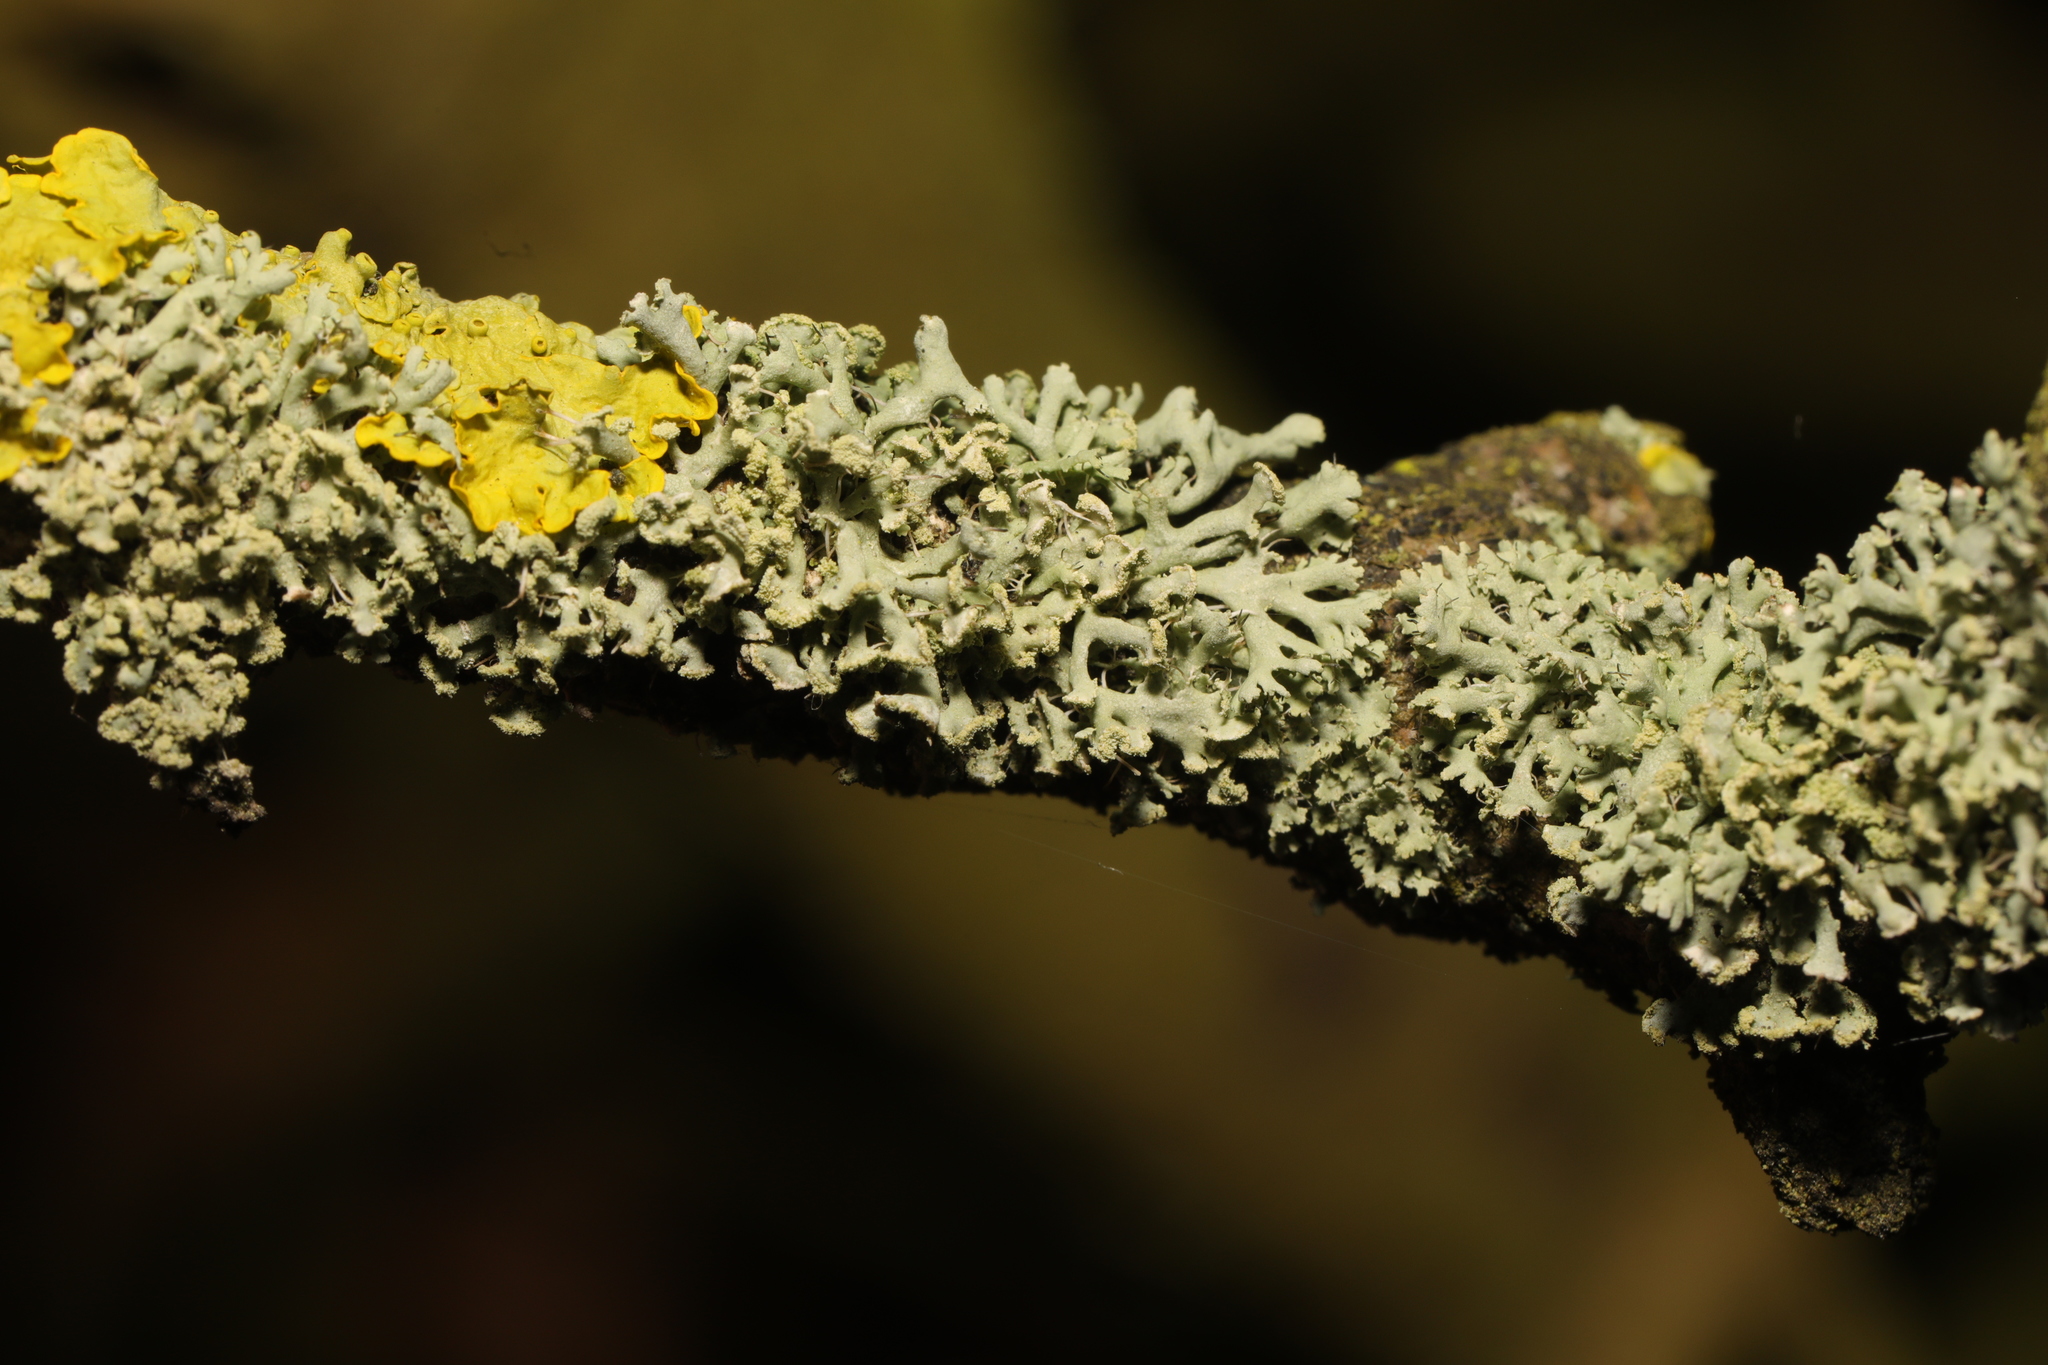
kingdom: Fungi
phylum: Ascomycota
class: Lecanoromycetes
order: Caliciales
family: Physciaceae
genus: Physcia
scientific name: Physcia tenella
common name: Fringed rosette lichen
